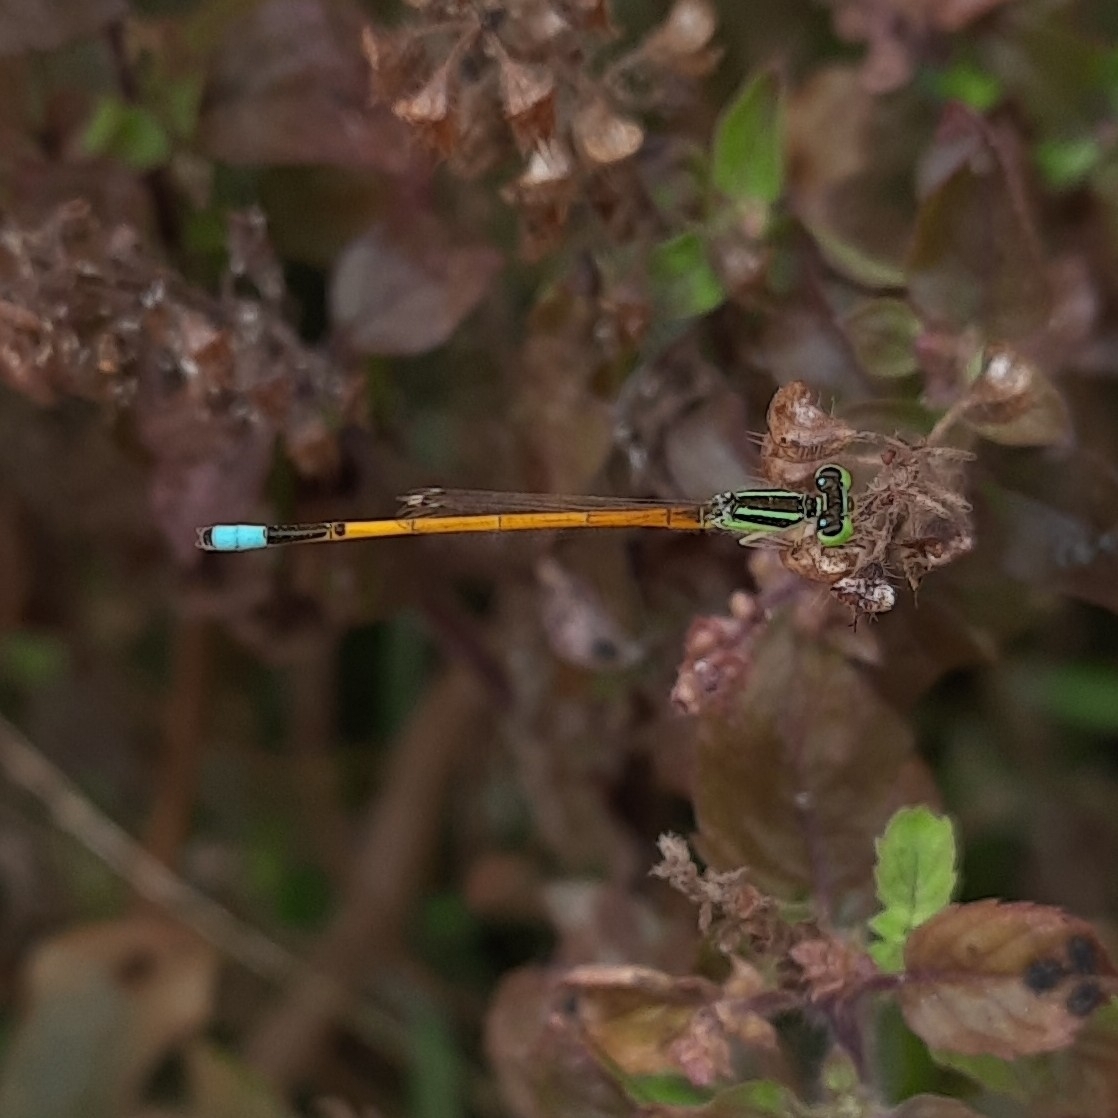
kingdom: Animalia
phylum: Arthropoda
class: Insecta
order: Odonata
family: Coenagrionidae
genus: Ischnura
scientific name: Ischnura rubilio
